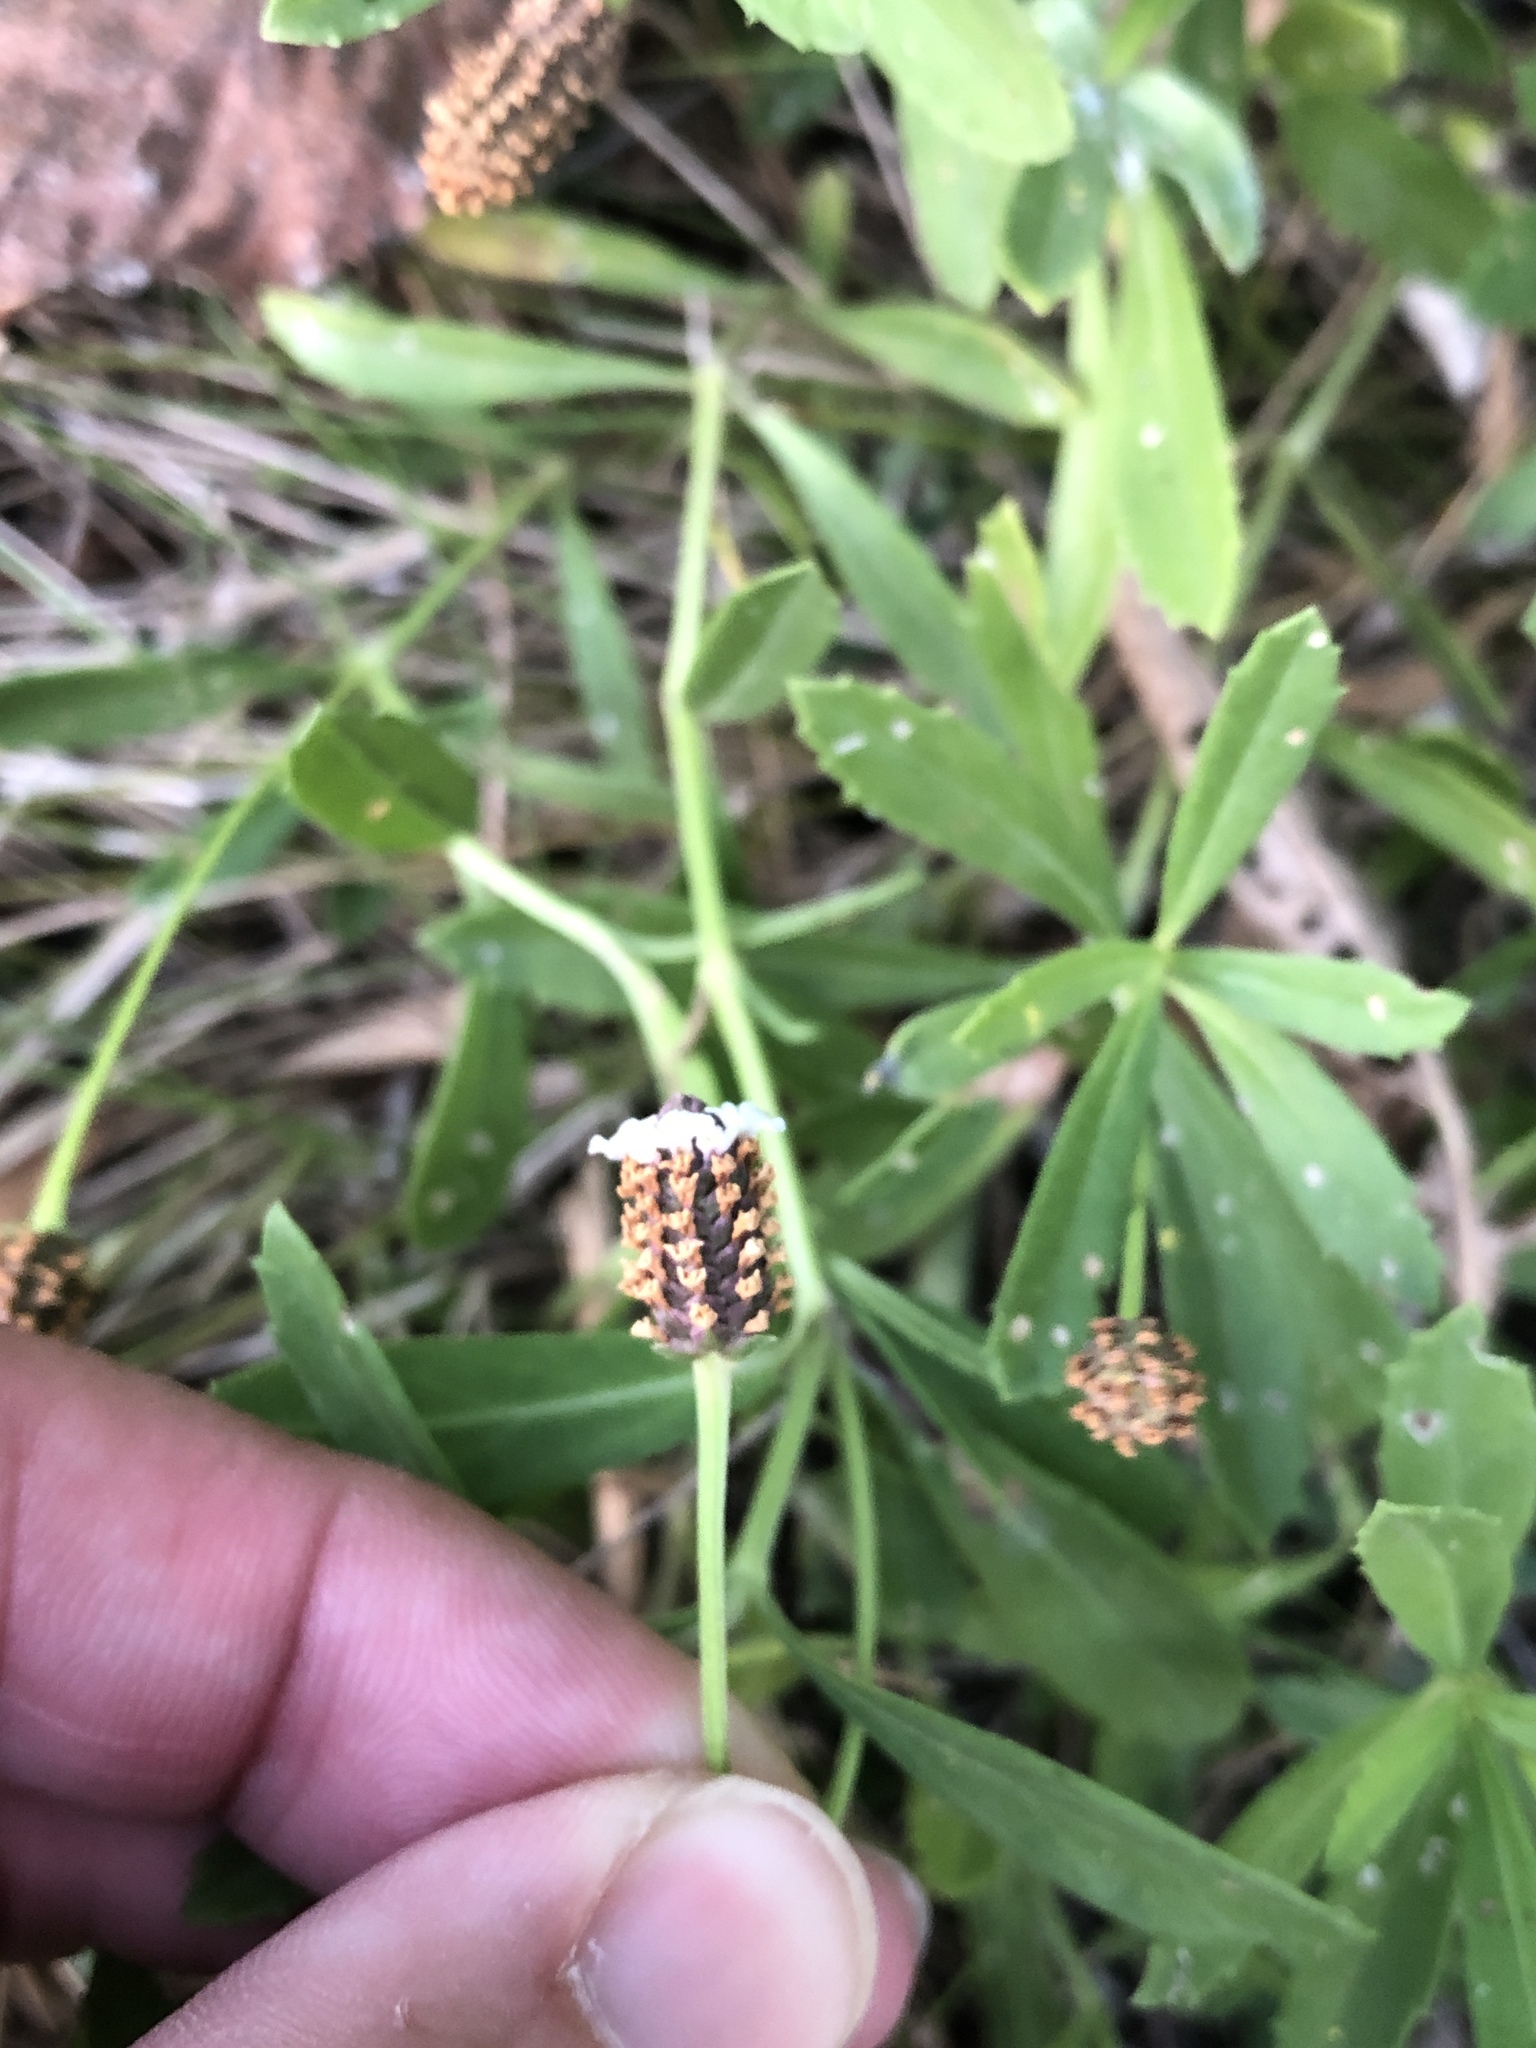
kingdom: Plantae
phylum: Tracheophyta
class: Magnoliopsida
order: Lamiales
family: Verbenaceae
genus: Phyla
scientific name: Phyla nodiflora
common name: Frogfruit
